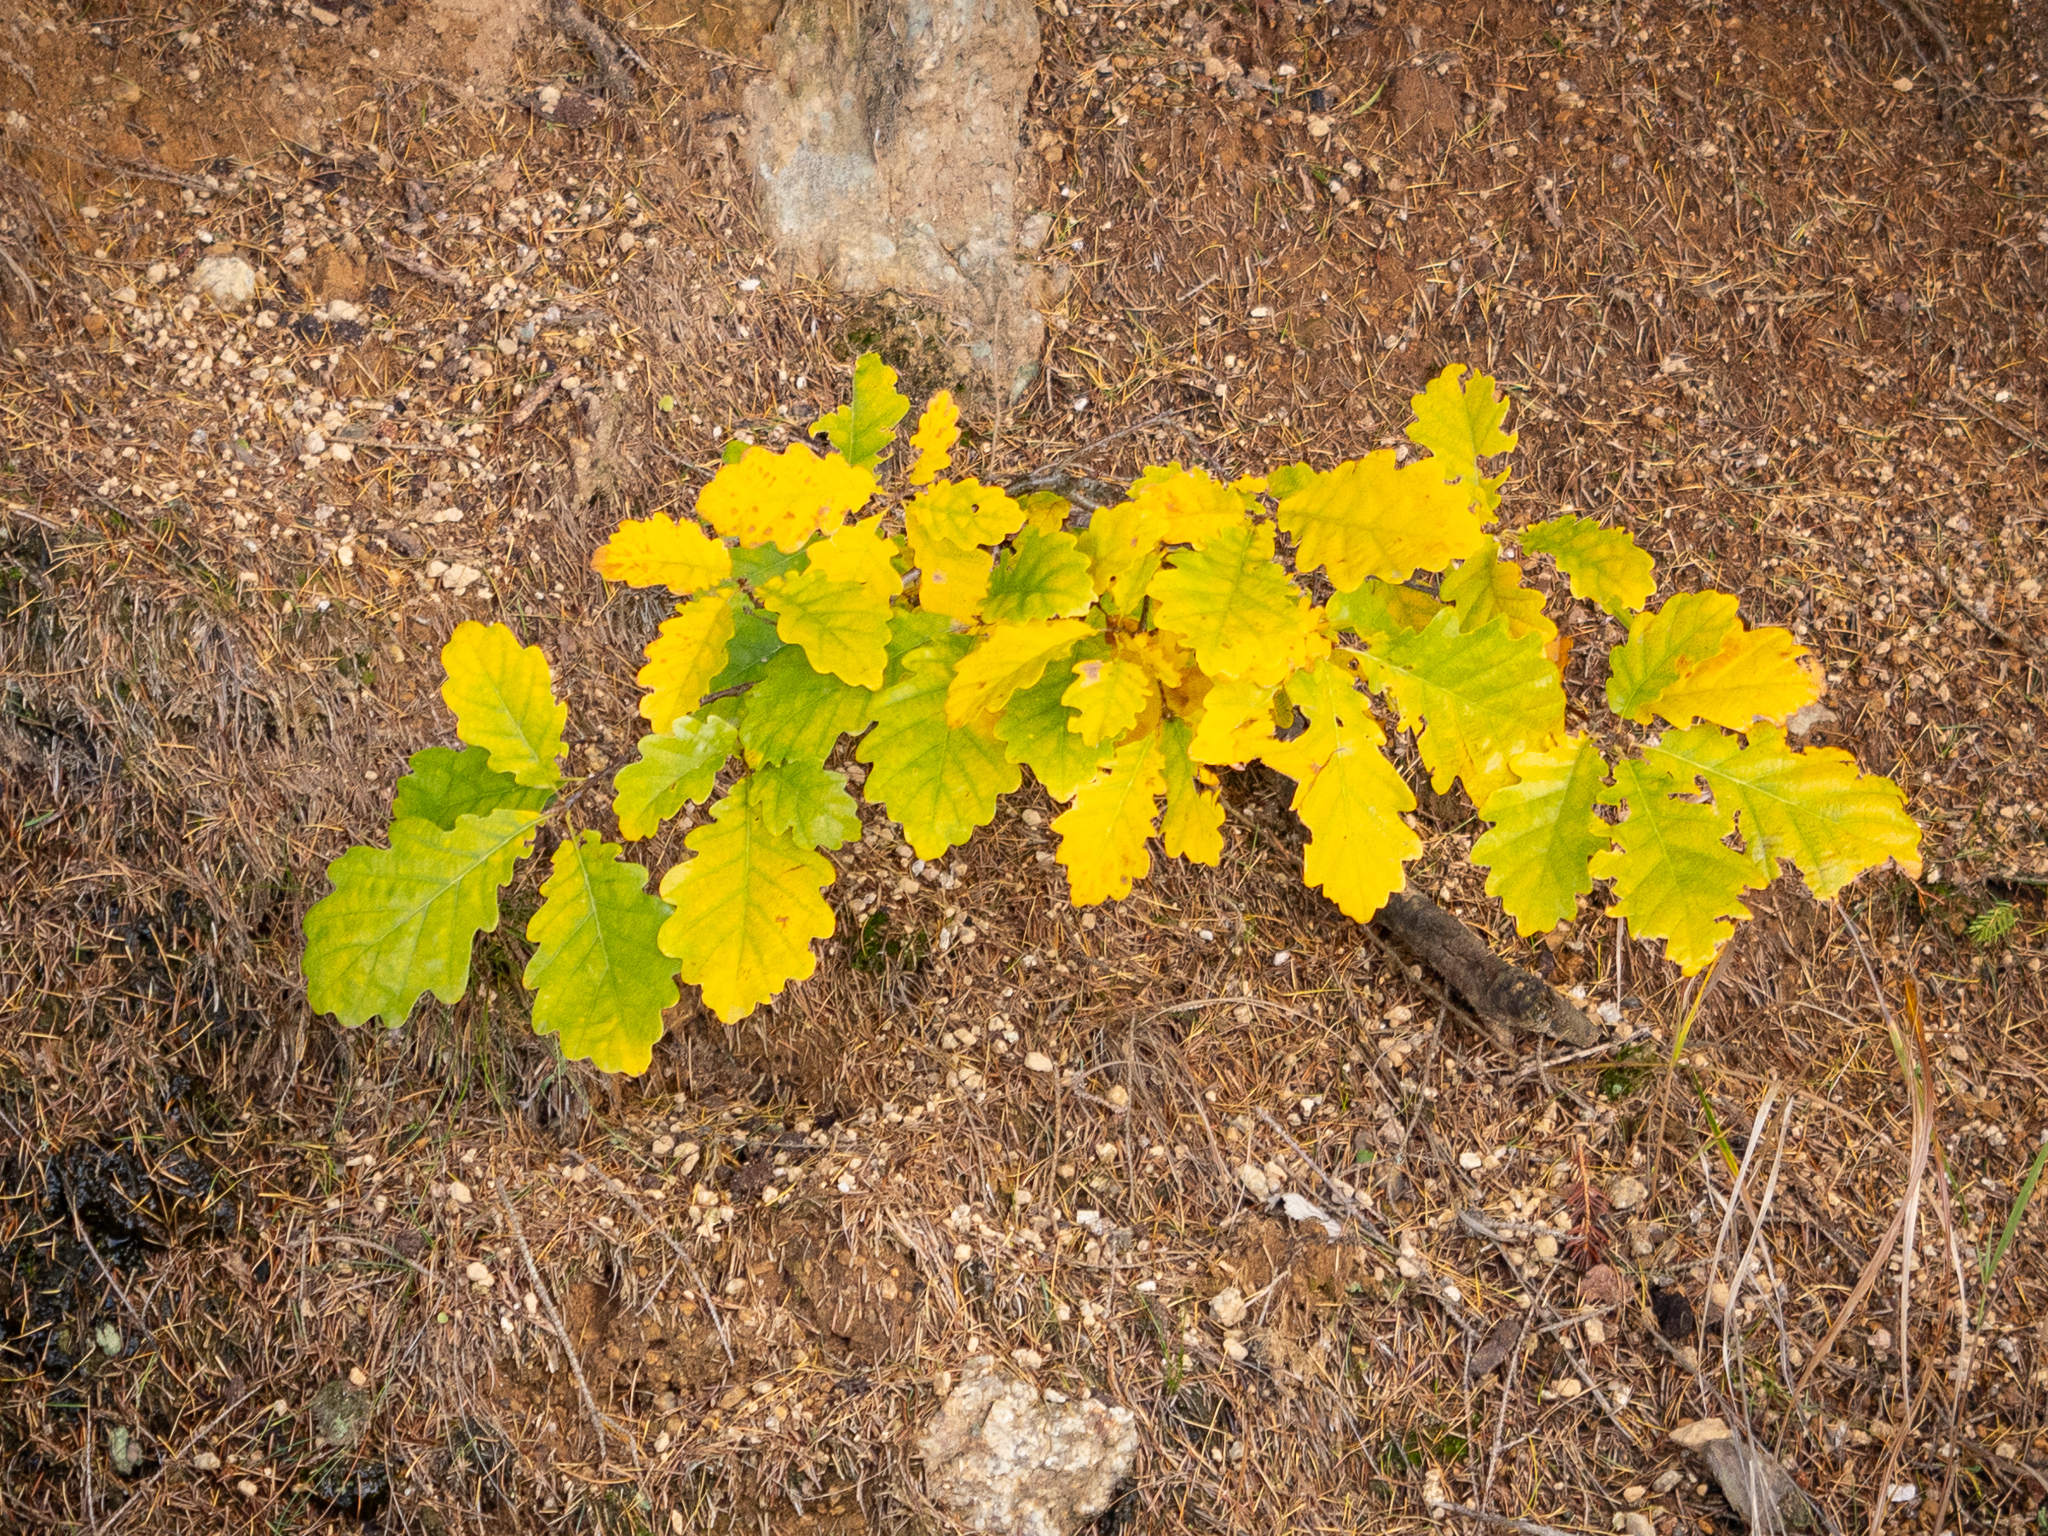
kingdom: Plantae
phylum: Tracheophyta
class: Magnoliopsida
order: Fagales
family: Fagaceae
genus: Quercus
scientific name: Quercus petraea
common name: Sessile oak
